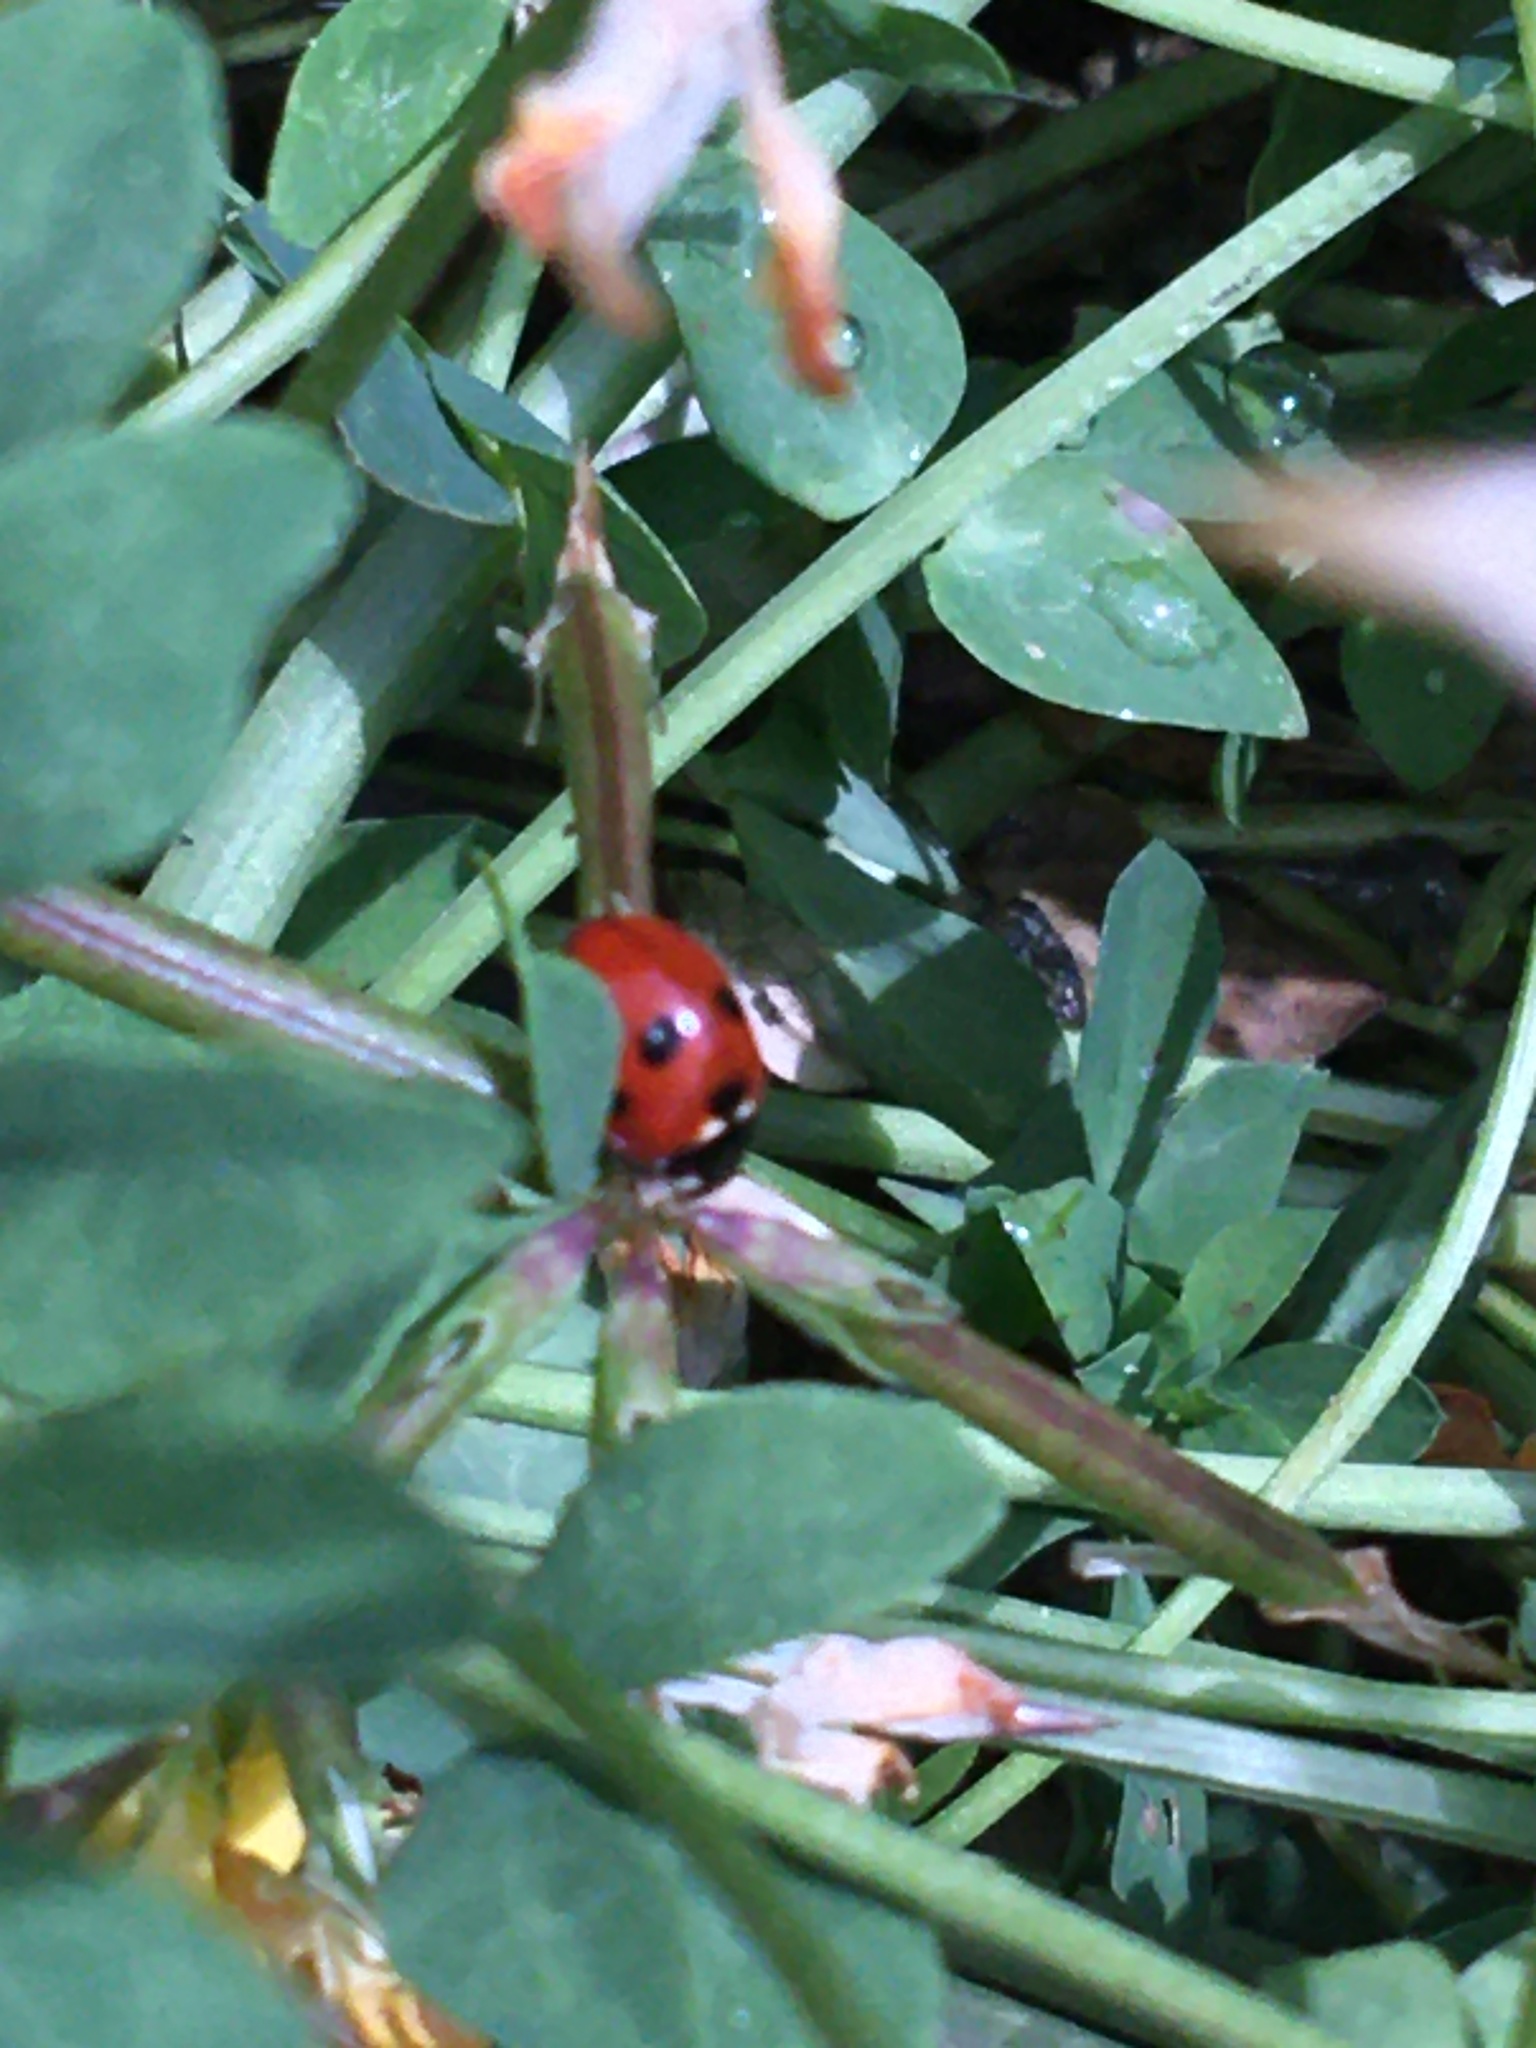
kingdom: Animalia
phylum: Arthropoda
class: Insecta
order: Coleoptera
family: Coccinellidae
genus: Coccinella
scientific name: Coccinella septempunctata
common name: Sevenspotted lady beetle
